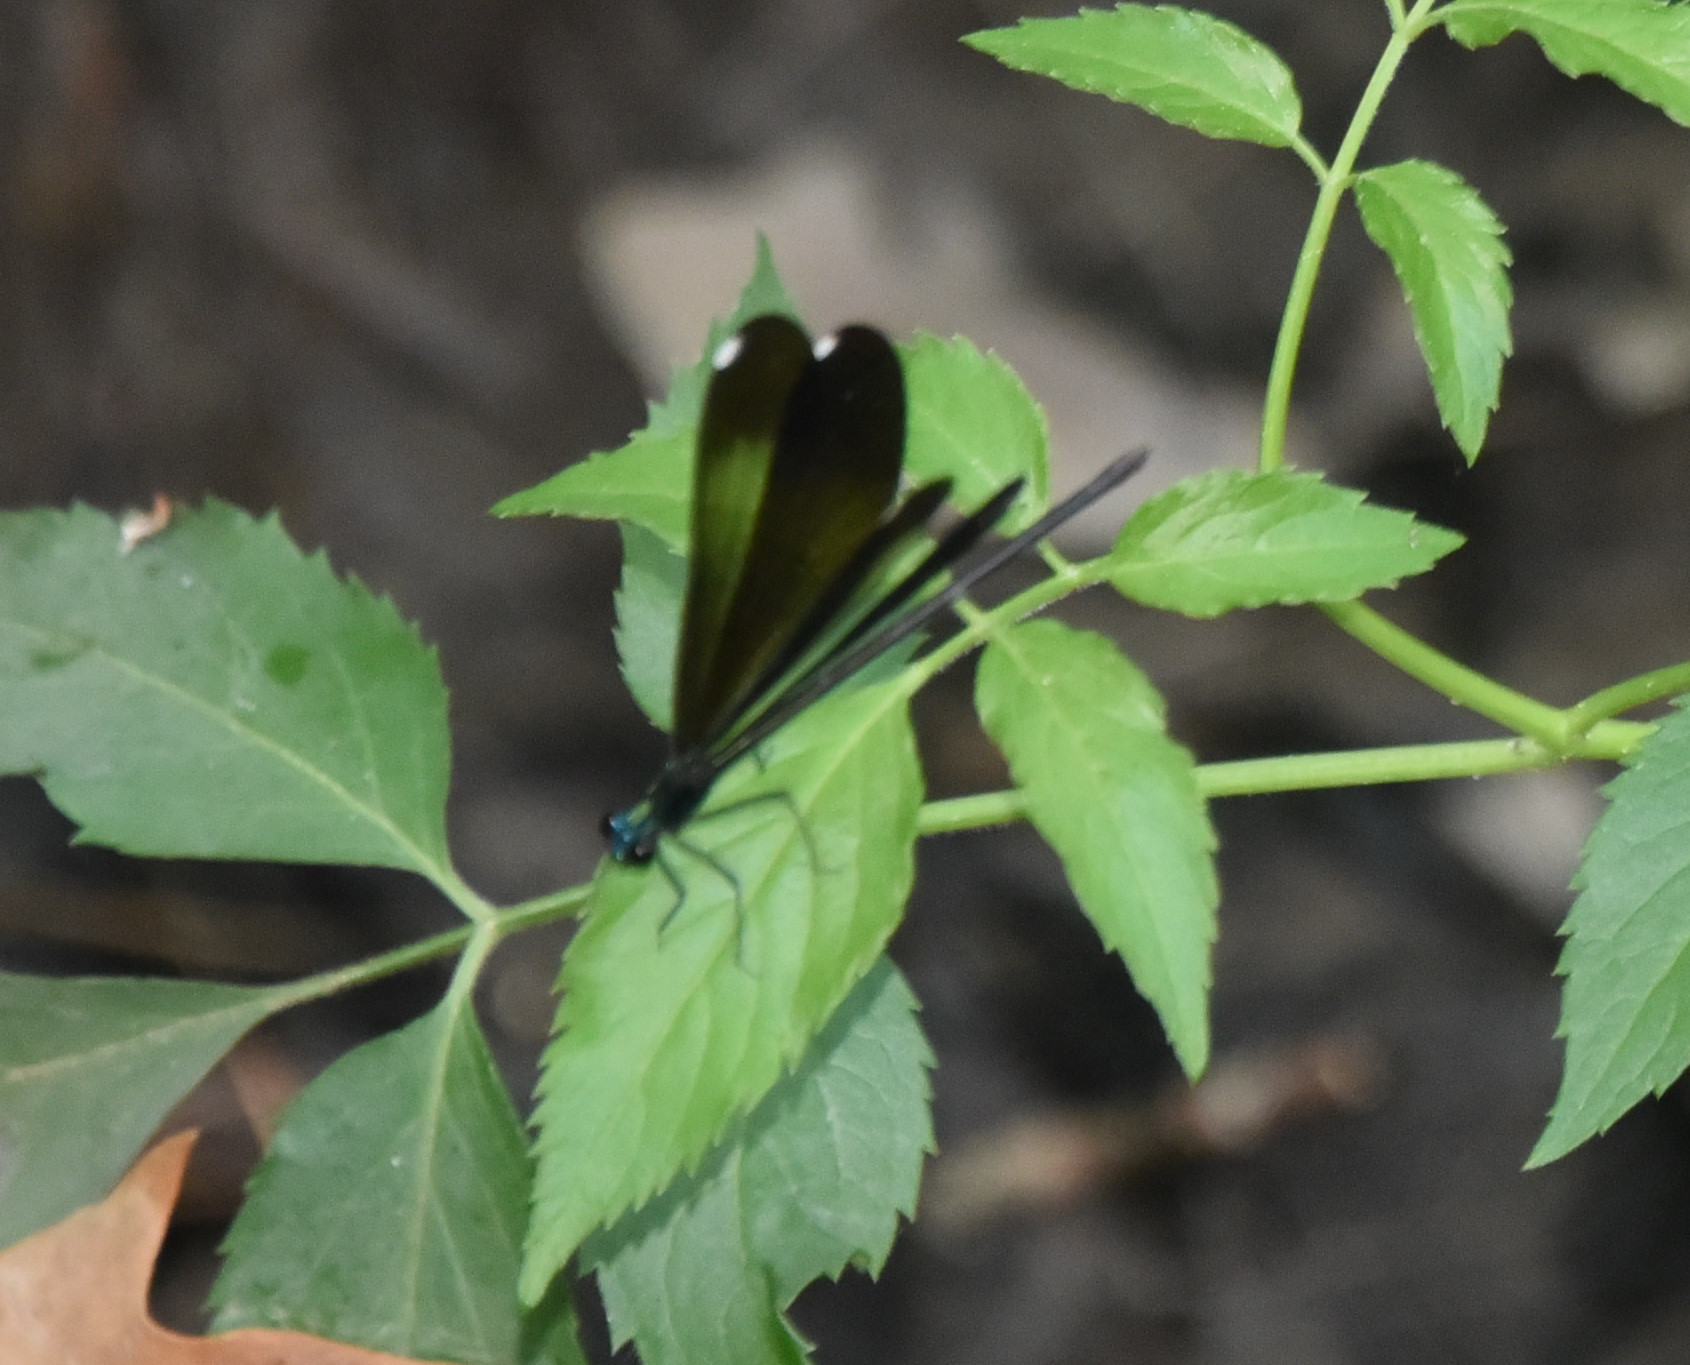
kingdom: Animalia
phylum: Arthropoda
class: Insecta
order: Odonata
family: Calopterygidae
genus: Calopteryx
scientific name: Calopteryx maculata
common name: Ebony jewelwing
